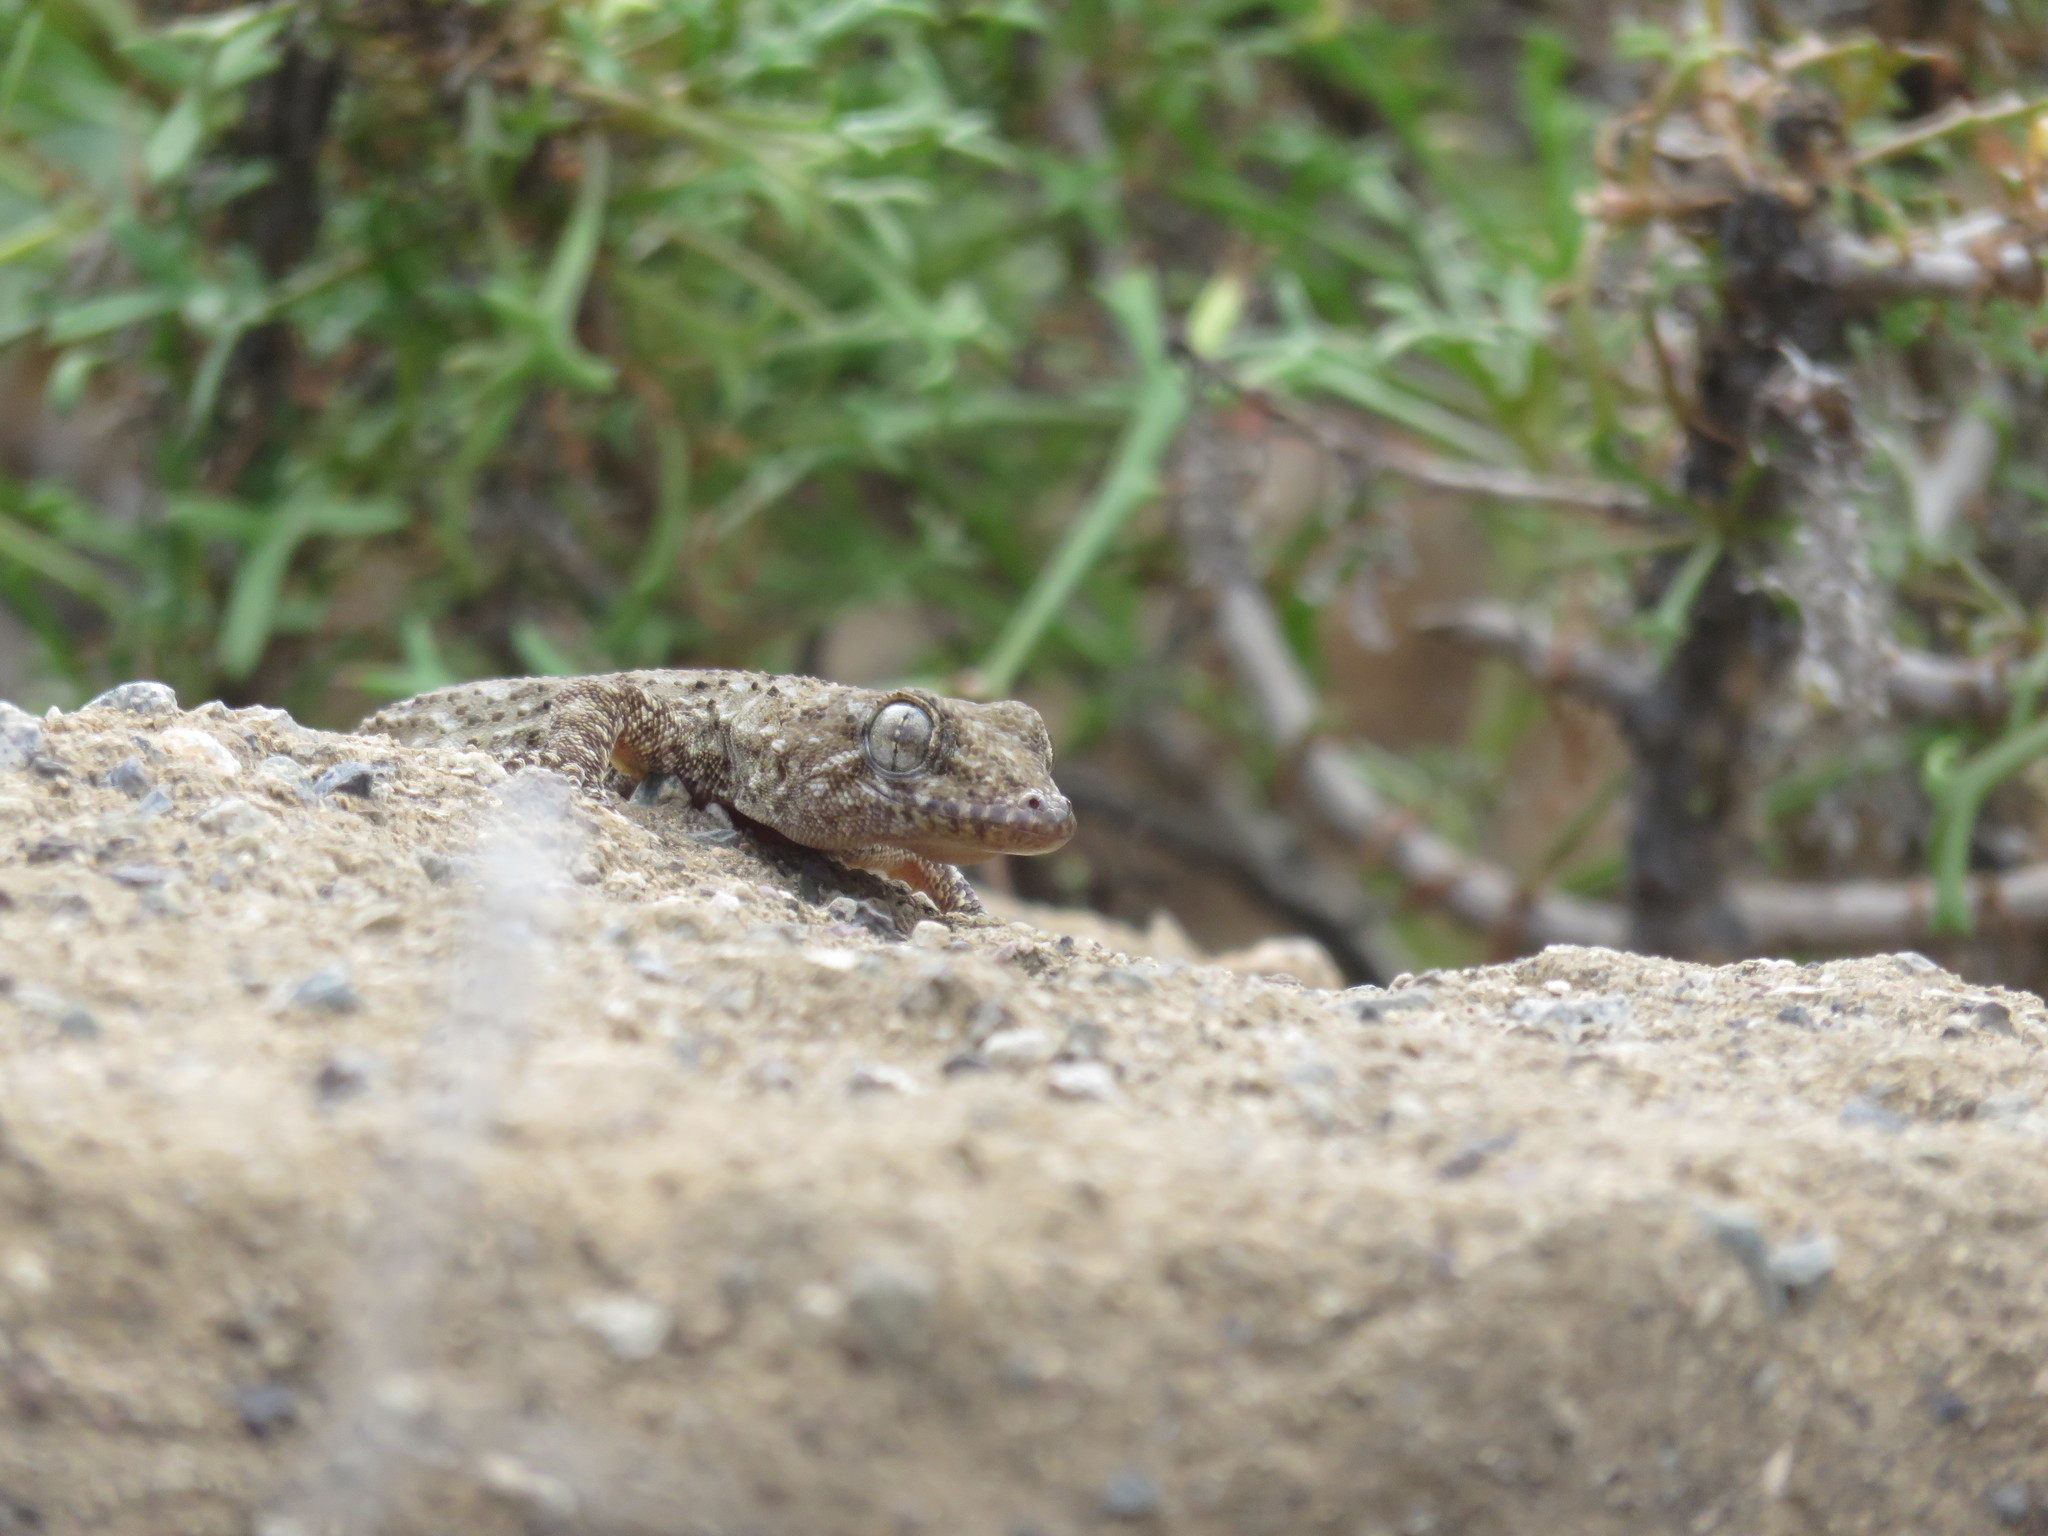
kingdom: Animalia
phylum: Chordata
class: Squamata
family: Phyllodactylidae
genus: Tarentola
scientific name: Tarentola delalandii
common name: Tenerife wall gecko
